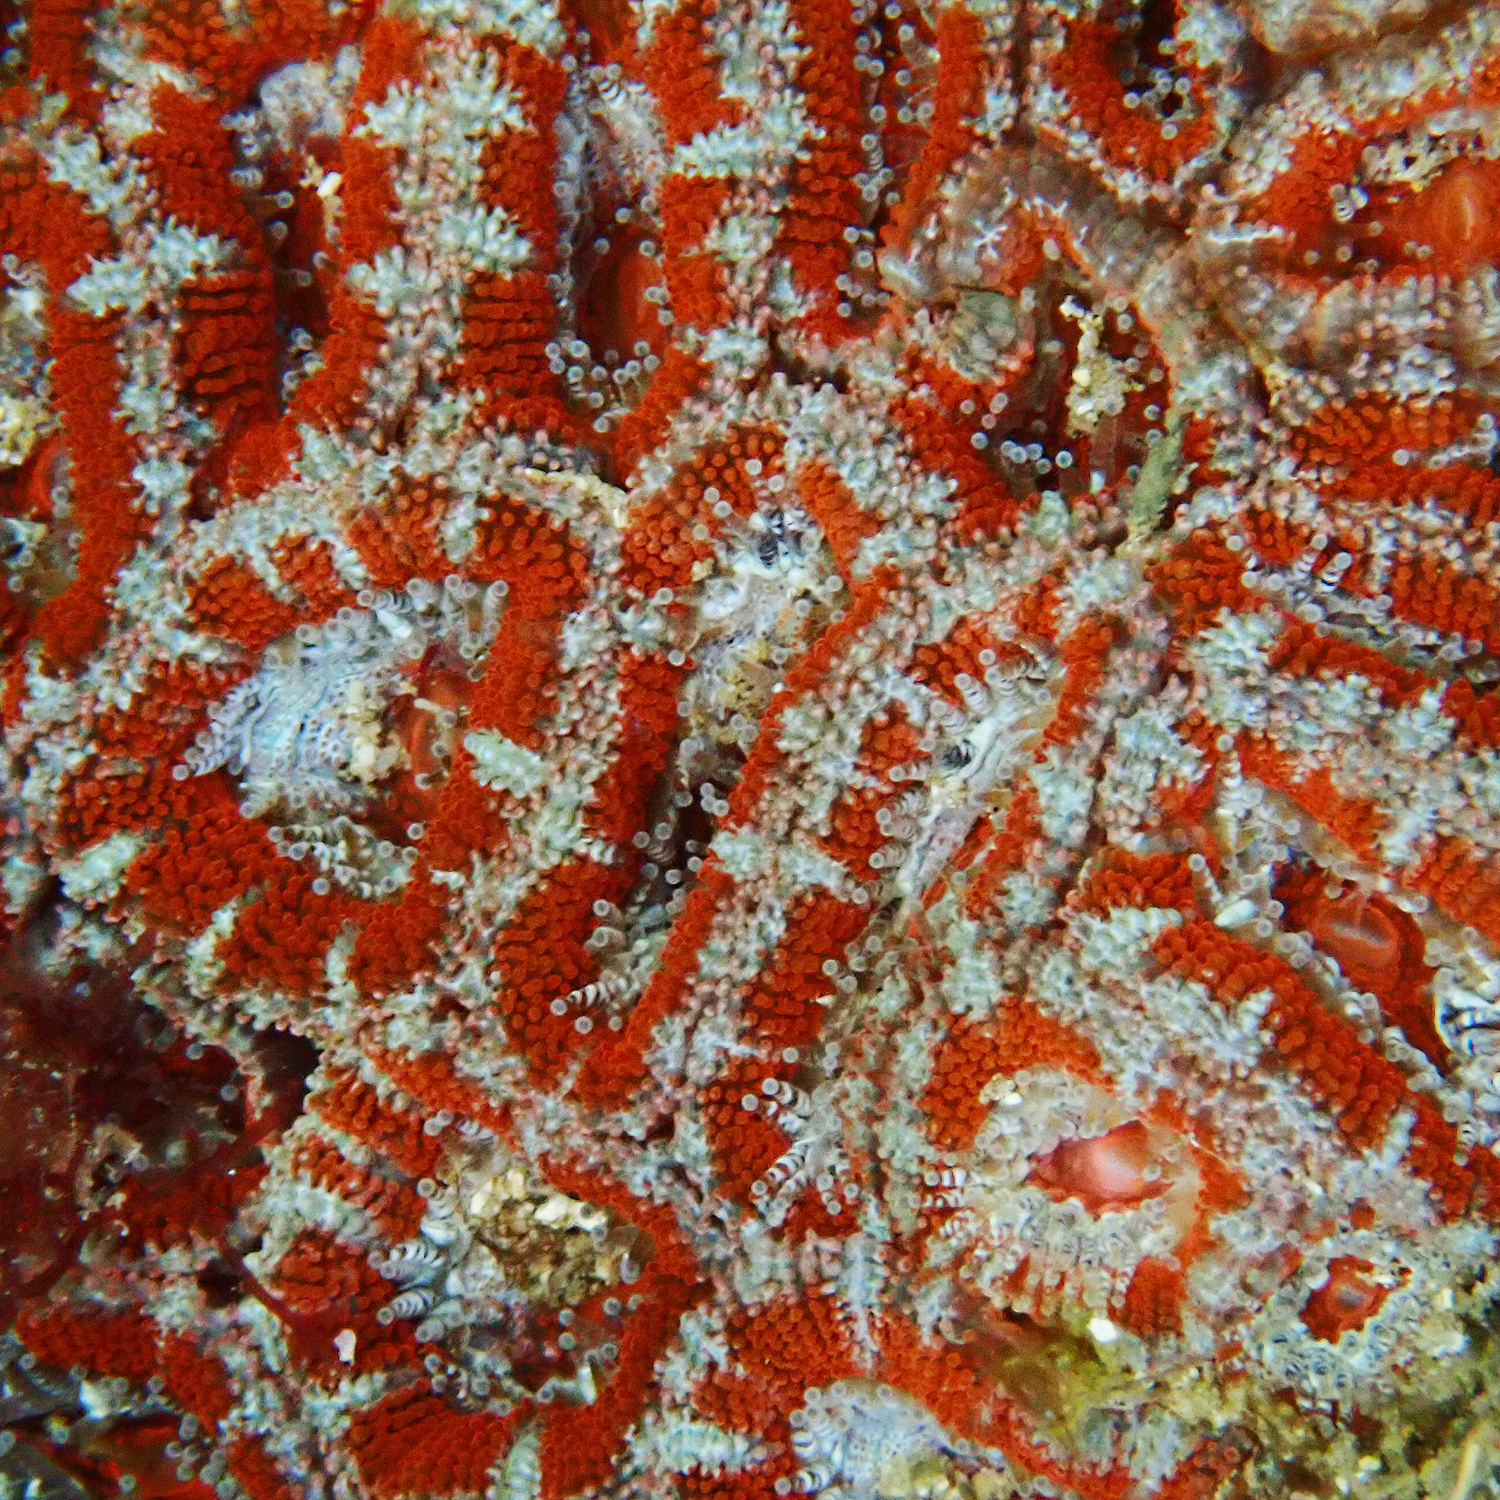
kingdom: Animalia
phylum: Cnidaria
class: Anthozoa
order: Scleractinia
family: Lobophylliidae
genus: Micromussa
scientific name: Micromussa lordhowensis
